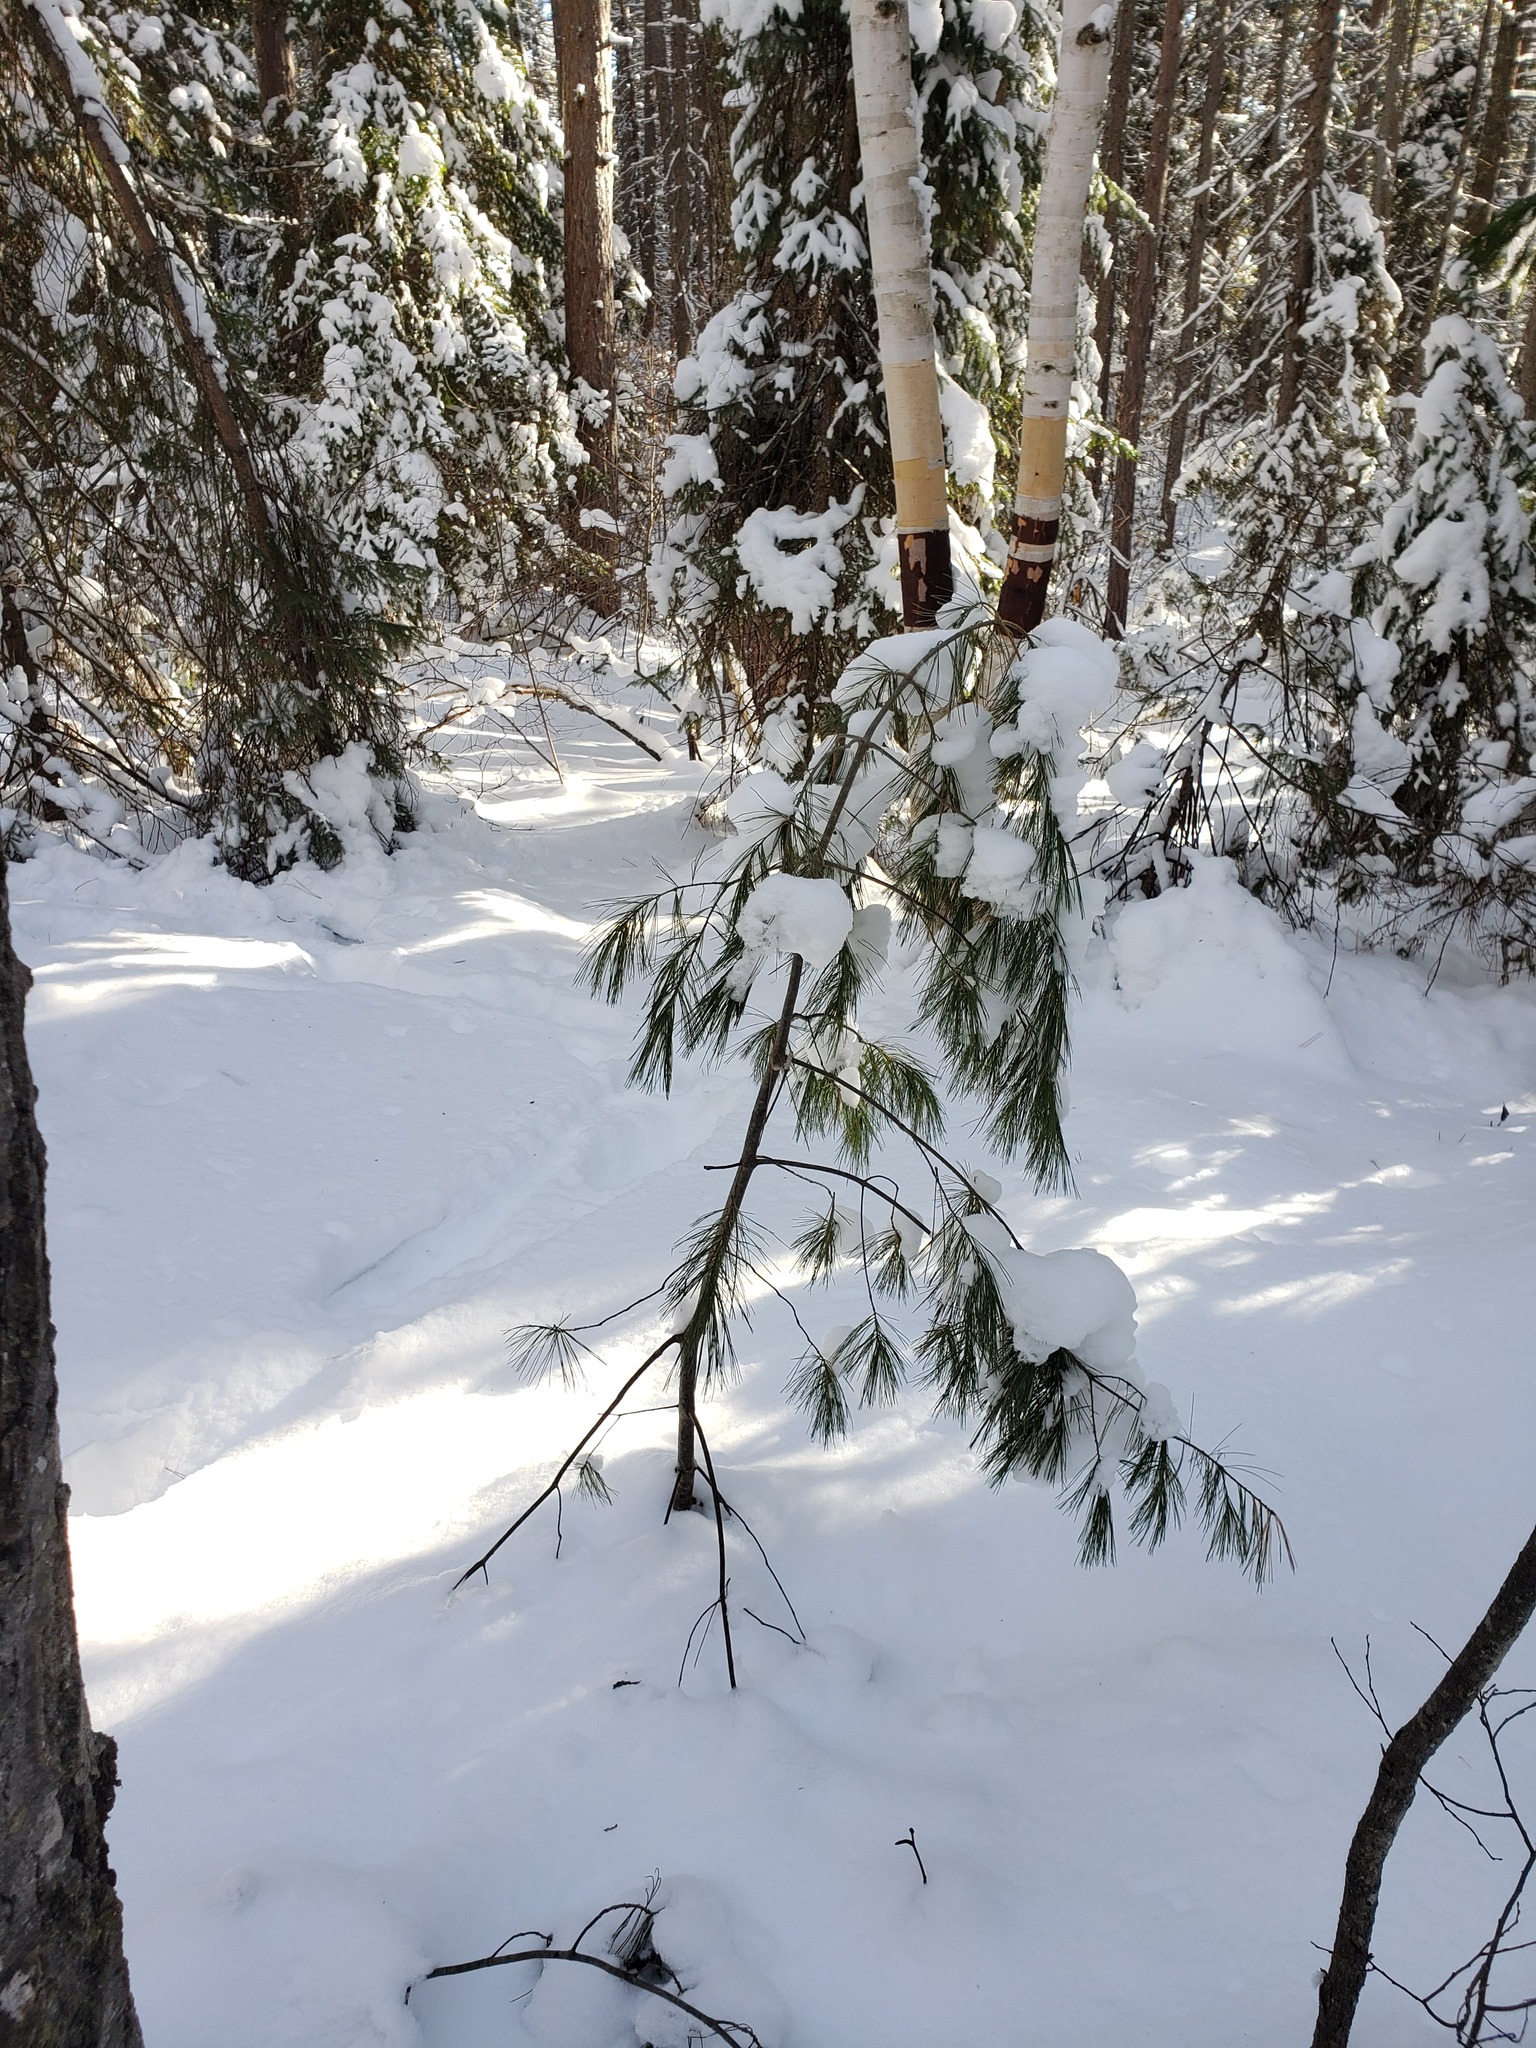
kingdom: Plantae
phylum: Tracheophyta
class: Pinopsida
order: Pinales
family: Pinaceae
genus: Pinus
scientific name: Pinus strobus
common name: Weymouth pine
